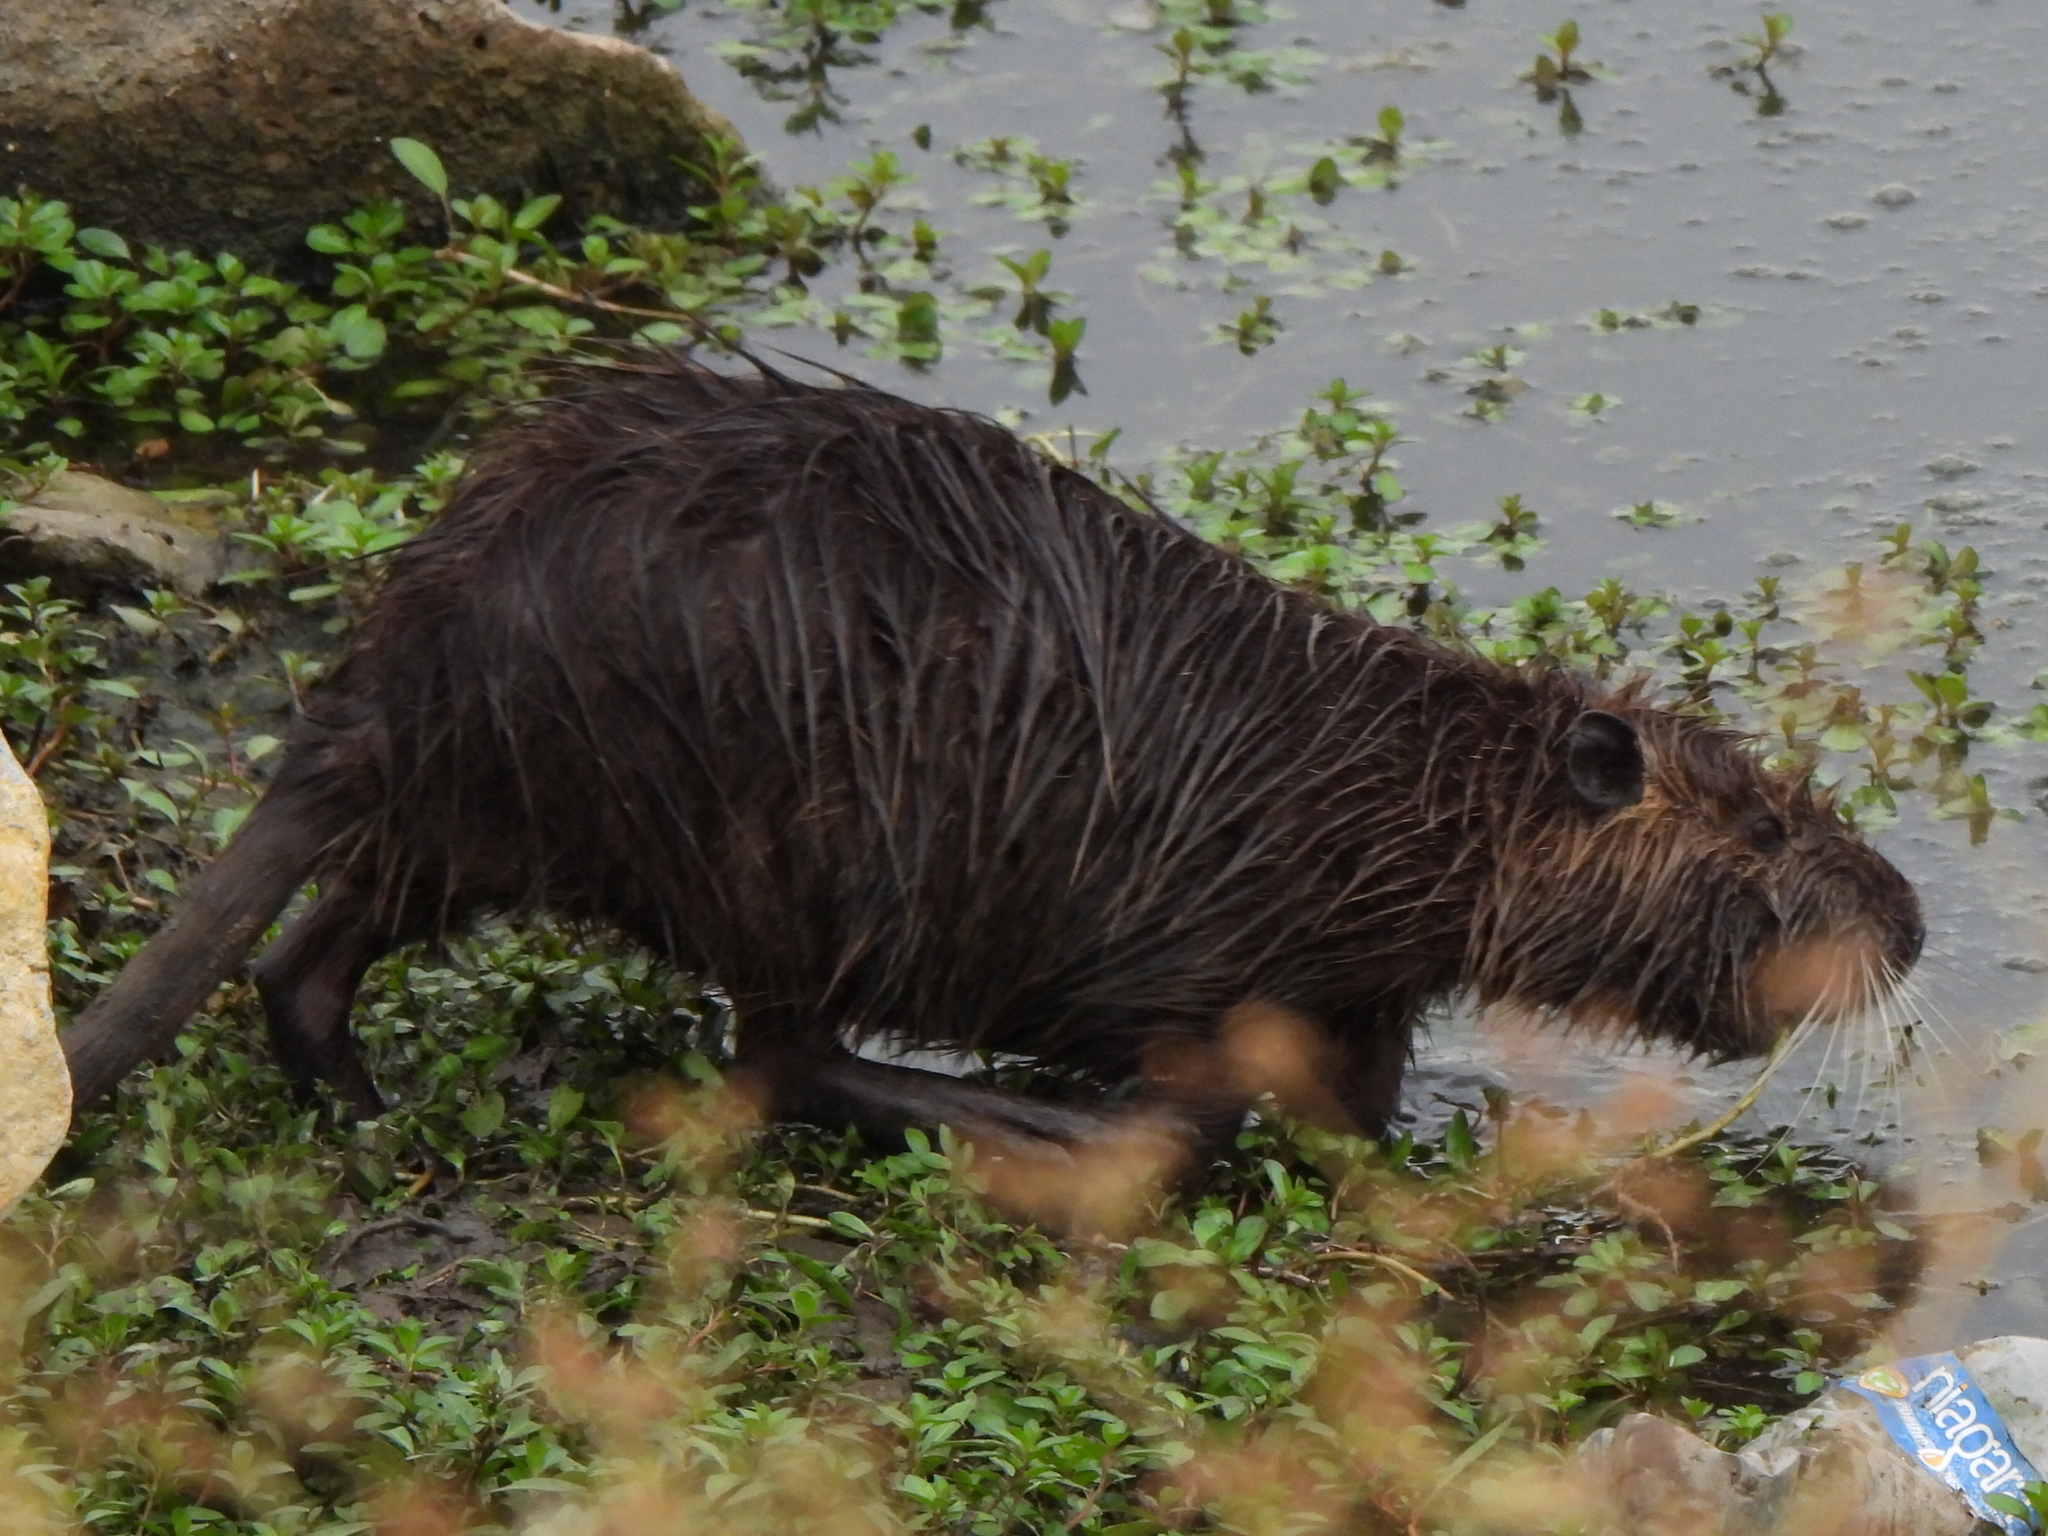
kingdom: Animalia
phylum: Chordata
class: Mammalia
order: Rodentia
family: Myocastoridae
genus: Myocastor
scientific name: Myocastor coypus
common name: Coypu
